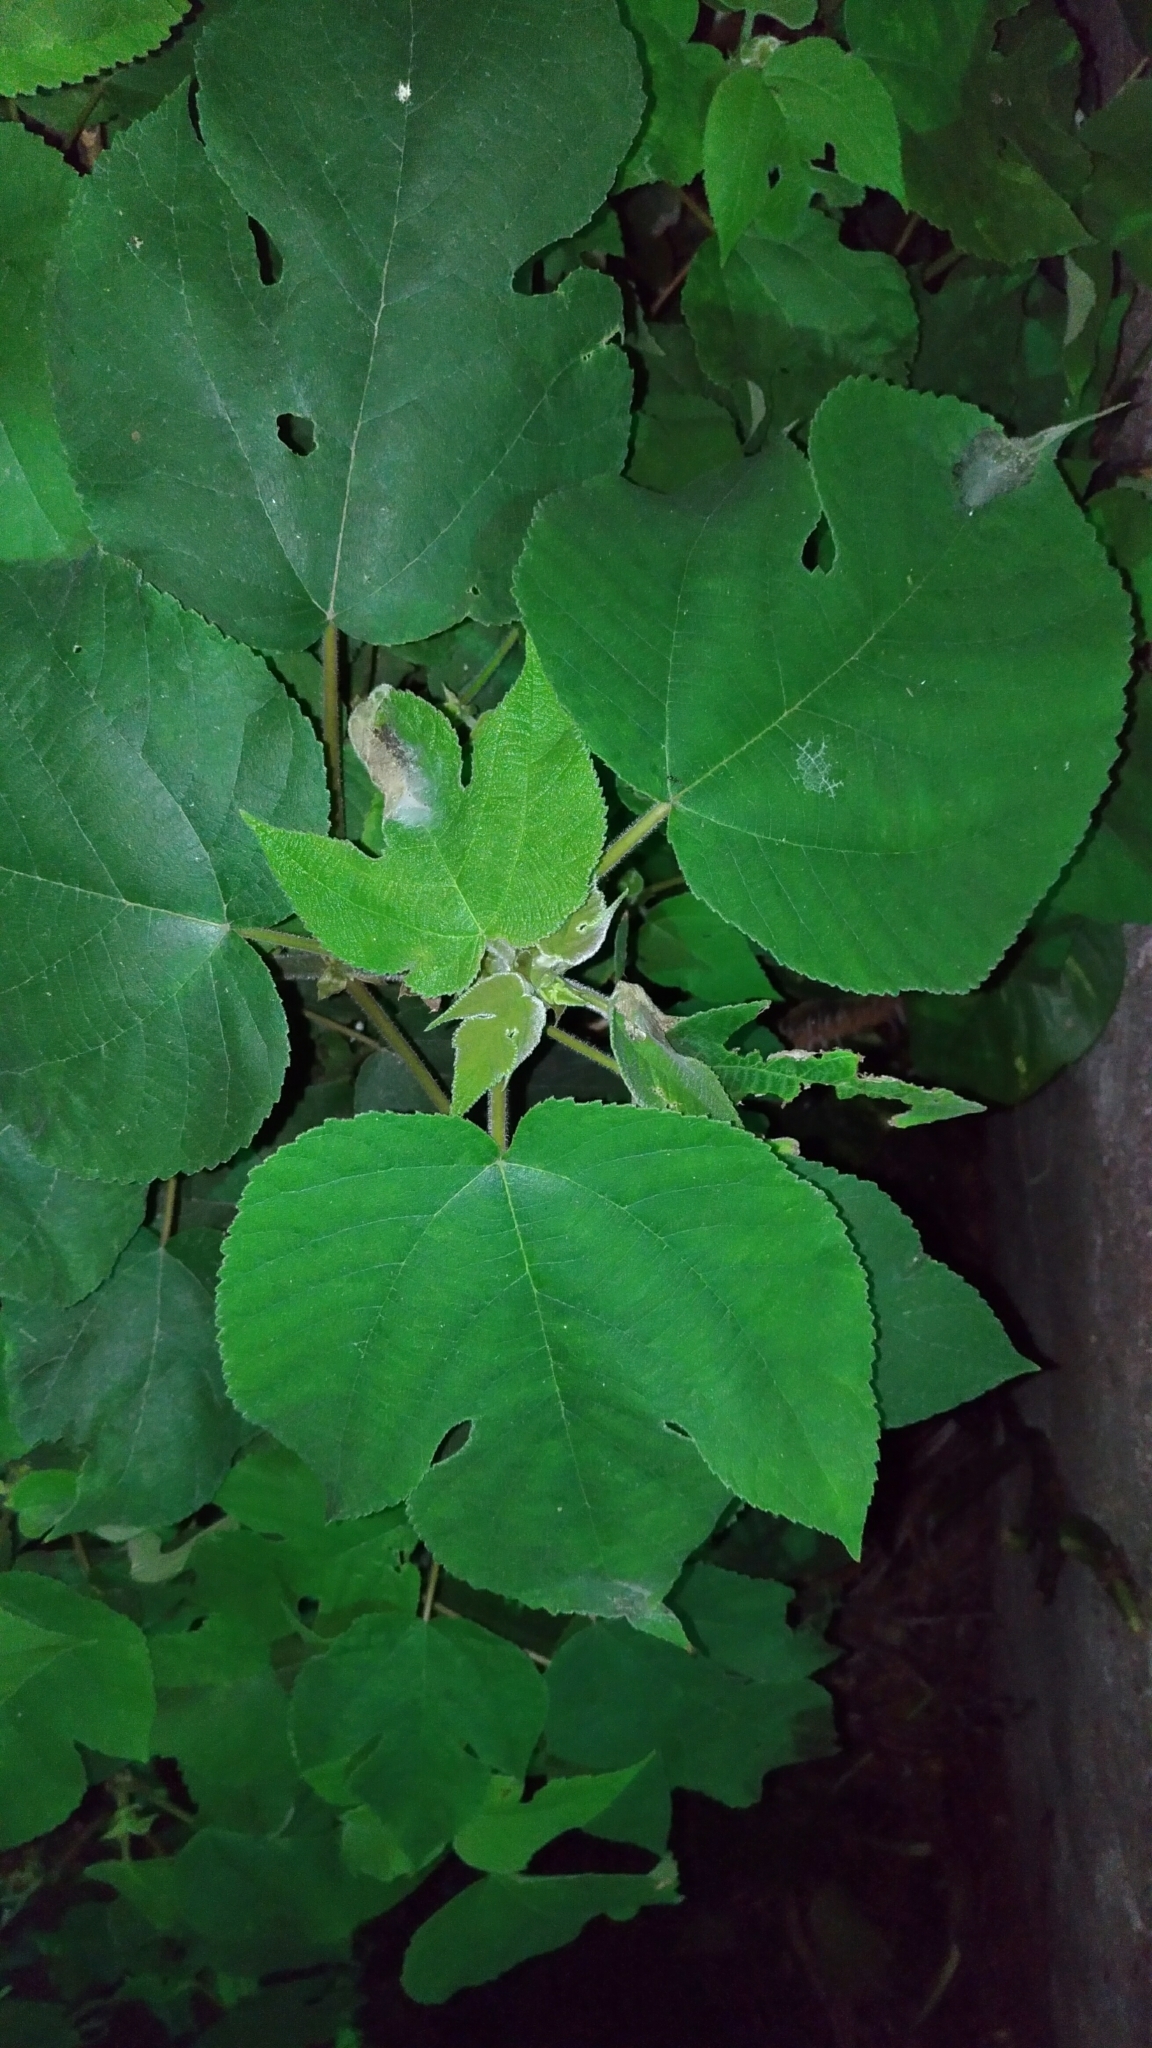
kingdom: Plantae
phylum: Tracheophyta
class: Magnoliopsida
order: Rosales
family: Moraceae
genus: Broussonetia
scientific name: Broussonetia papyrifera
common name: Paper mulberry
